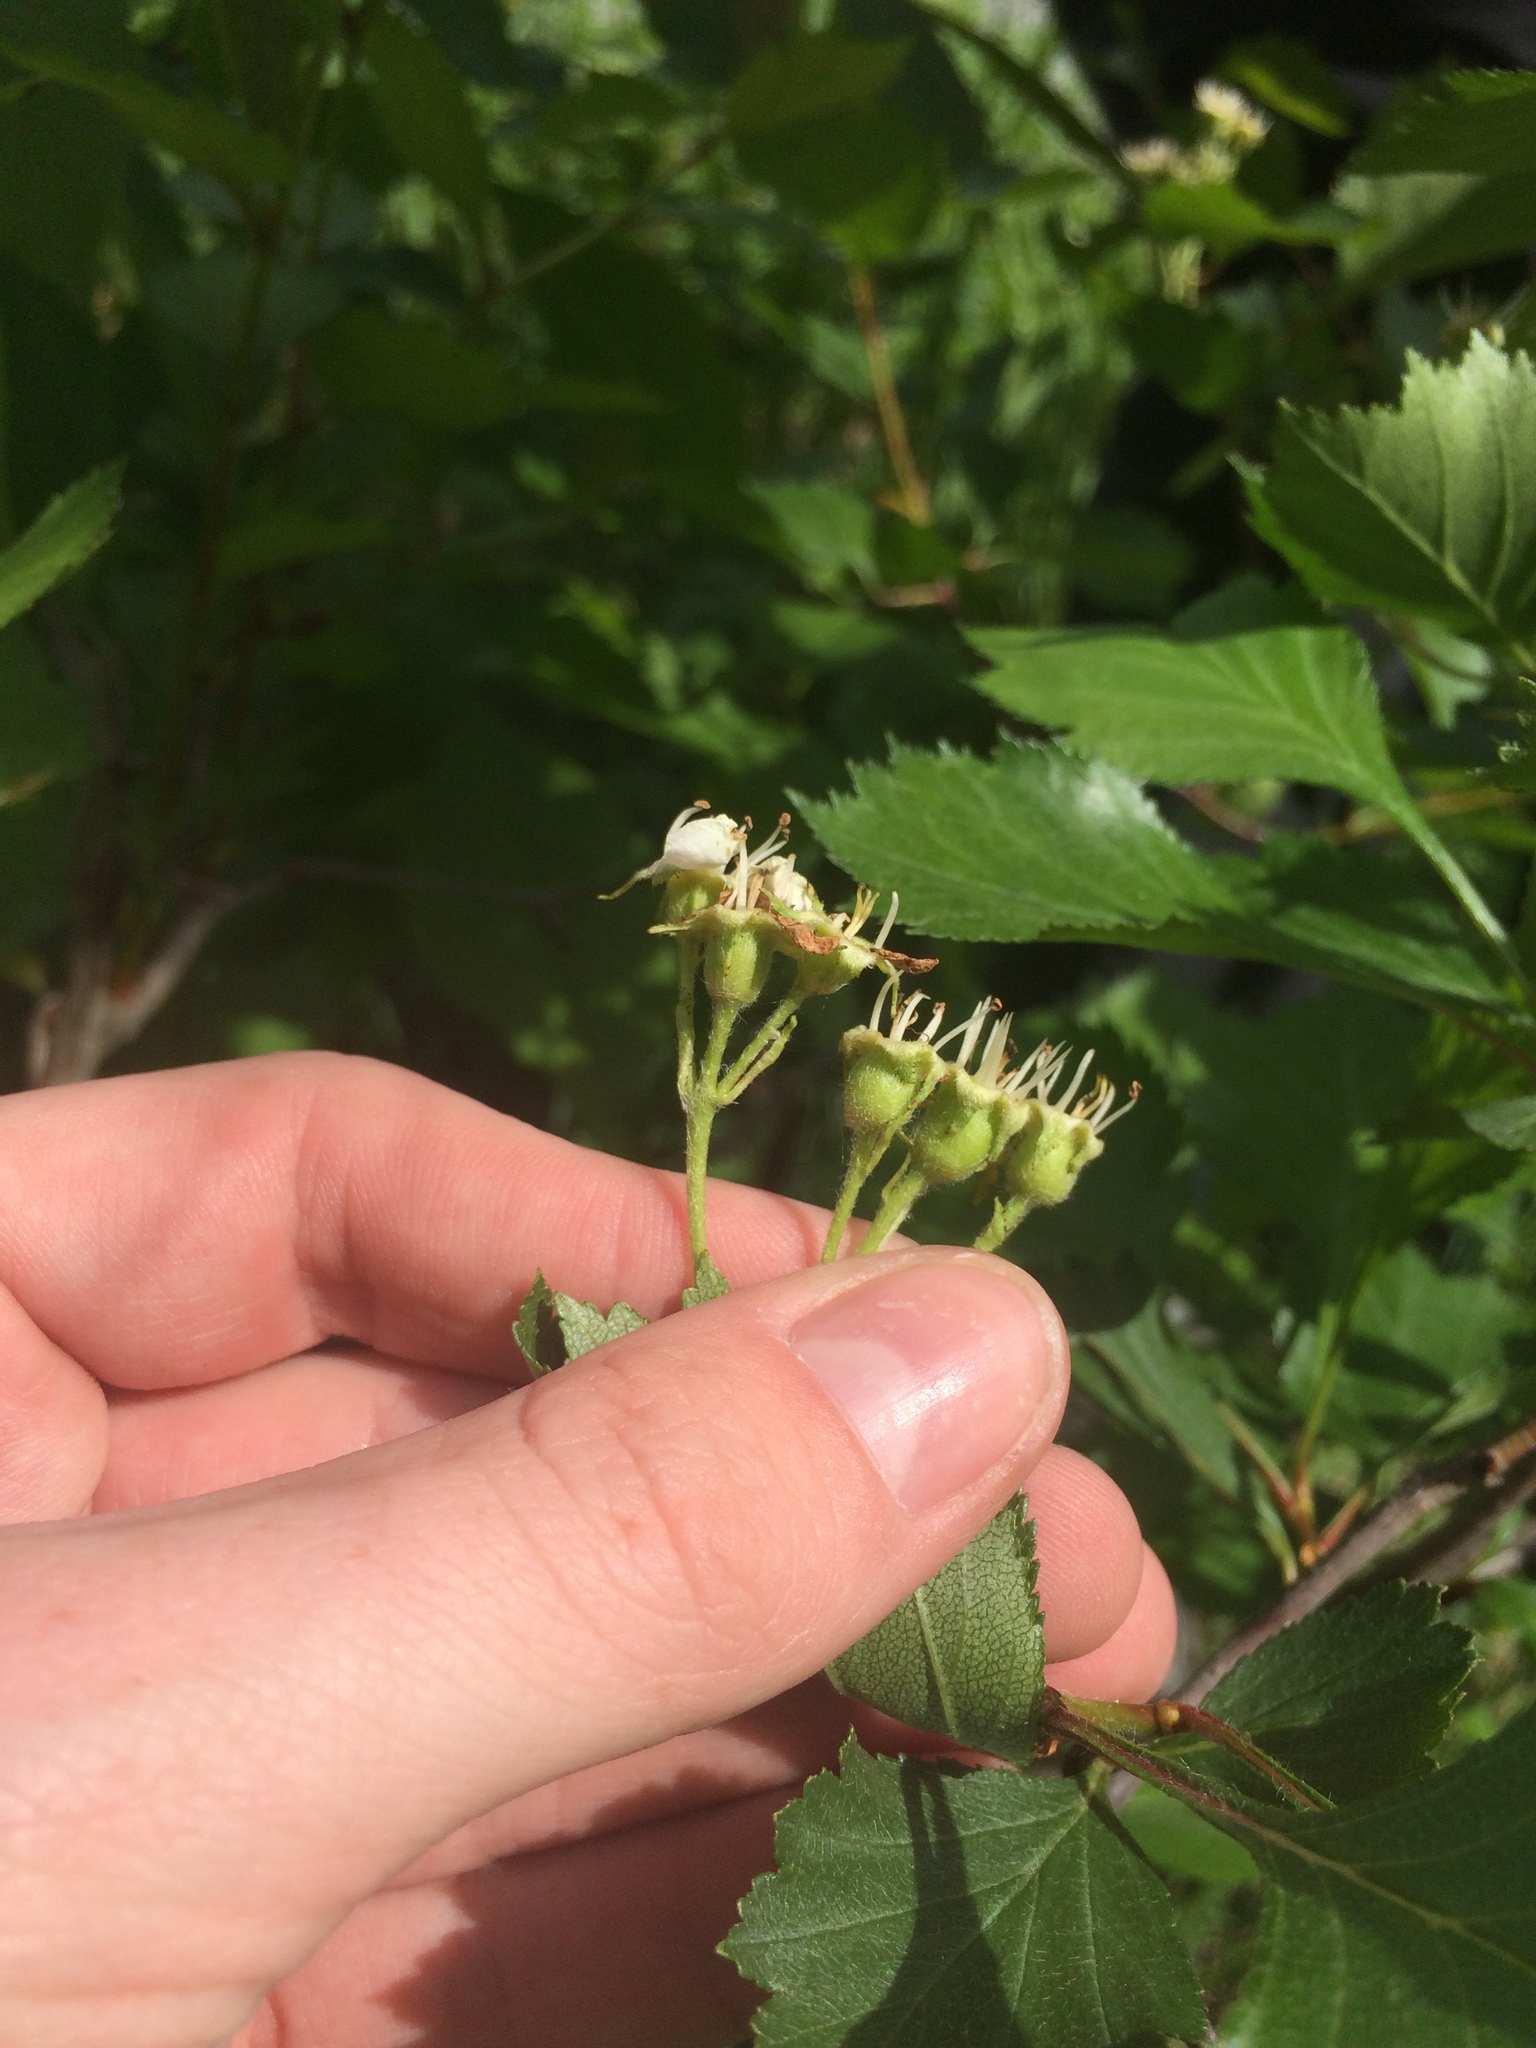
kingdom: Plantae
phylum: Tracheophyta
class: Magnoliopsida
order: Rosales
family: Rosaceae
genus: Crataegus
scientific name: Crataegus chrysocarpa
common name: Fire-berry hawthorn
